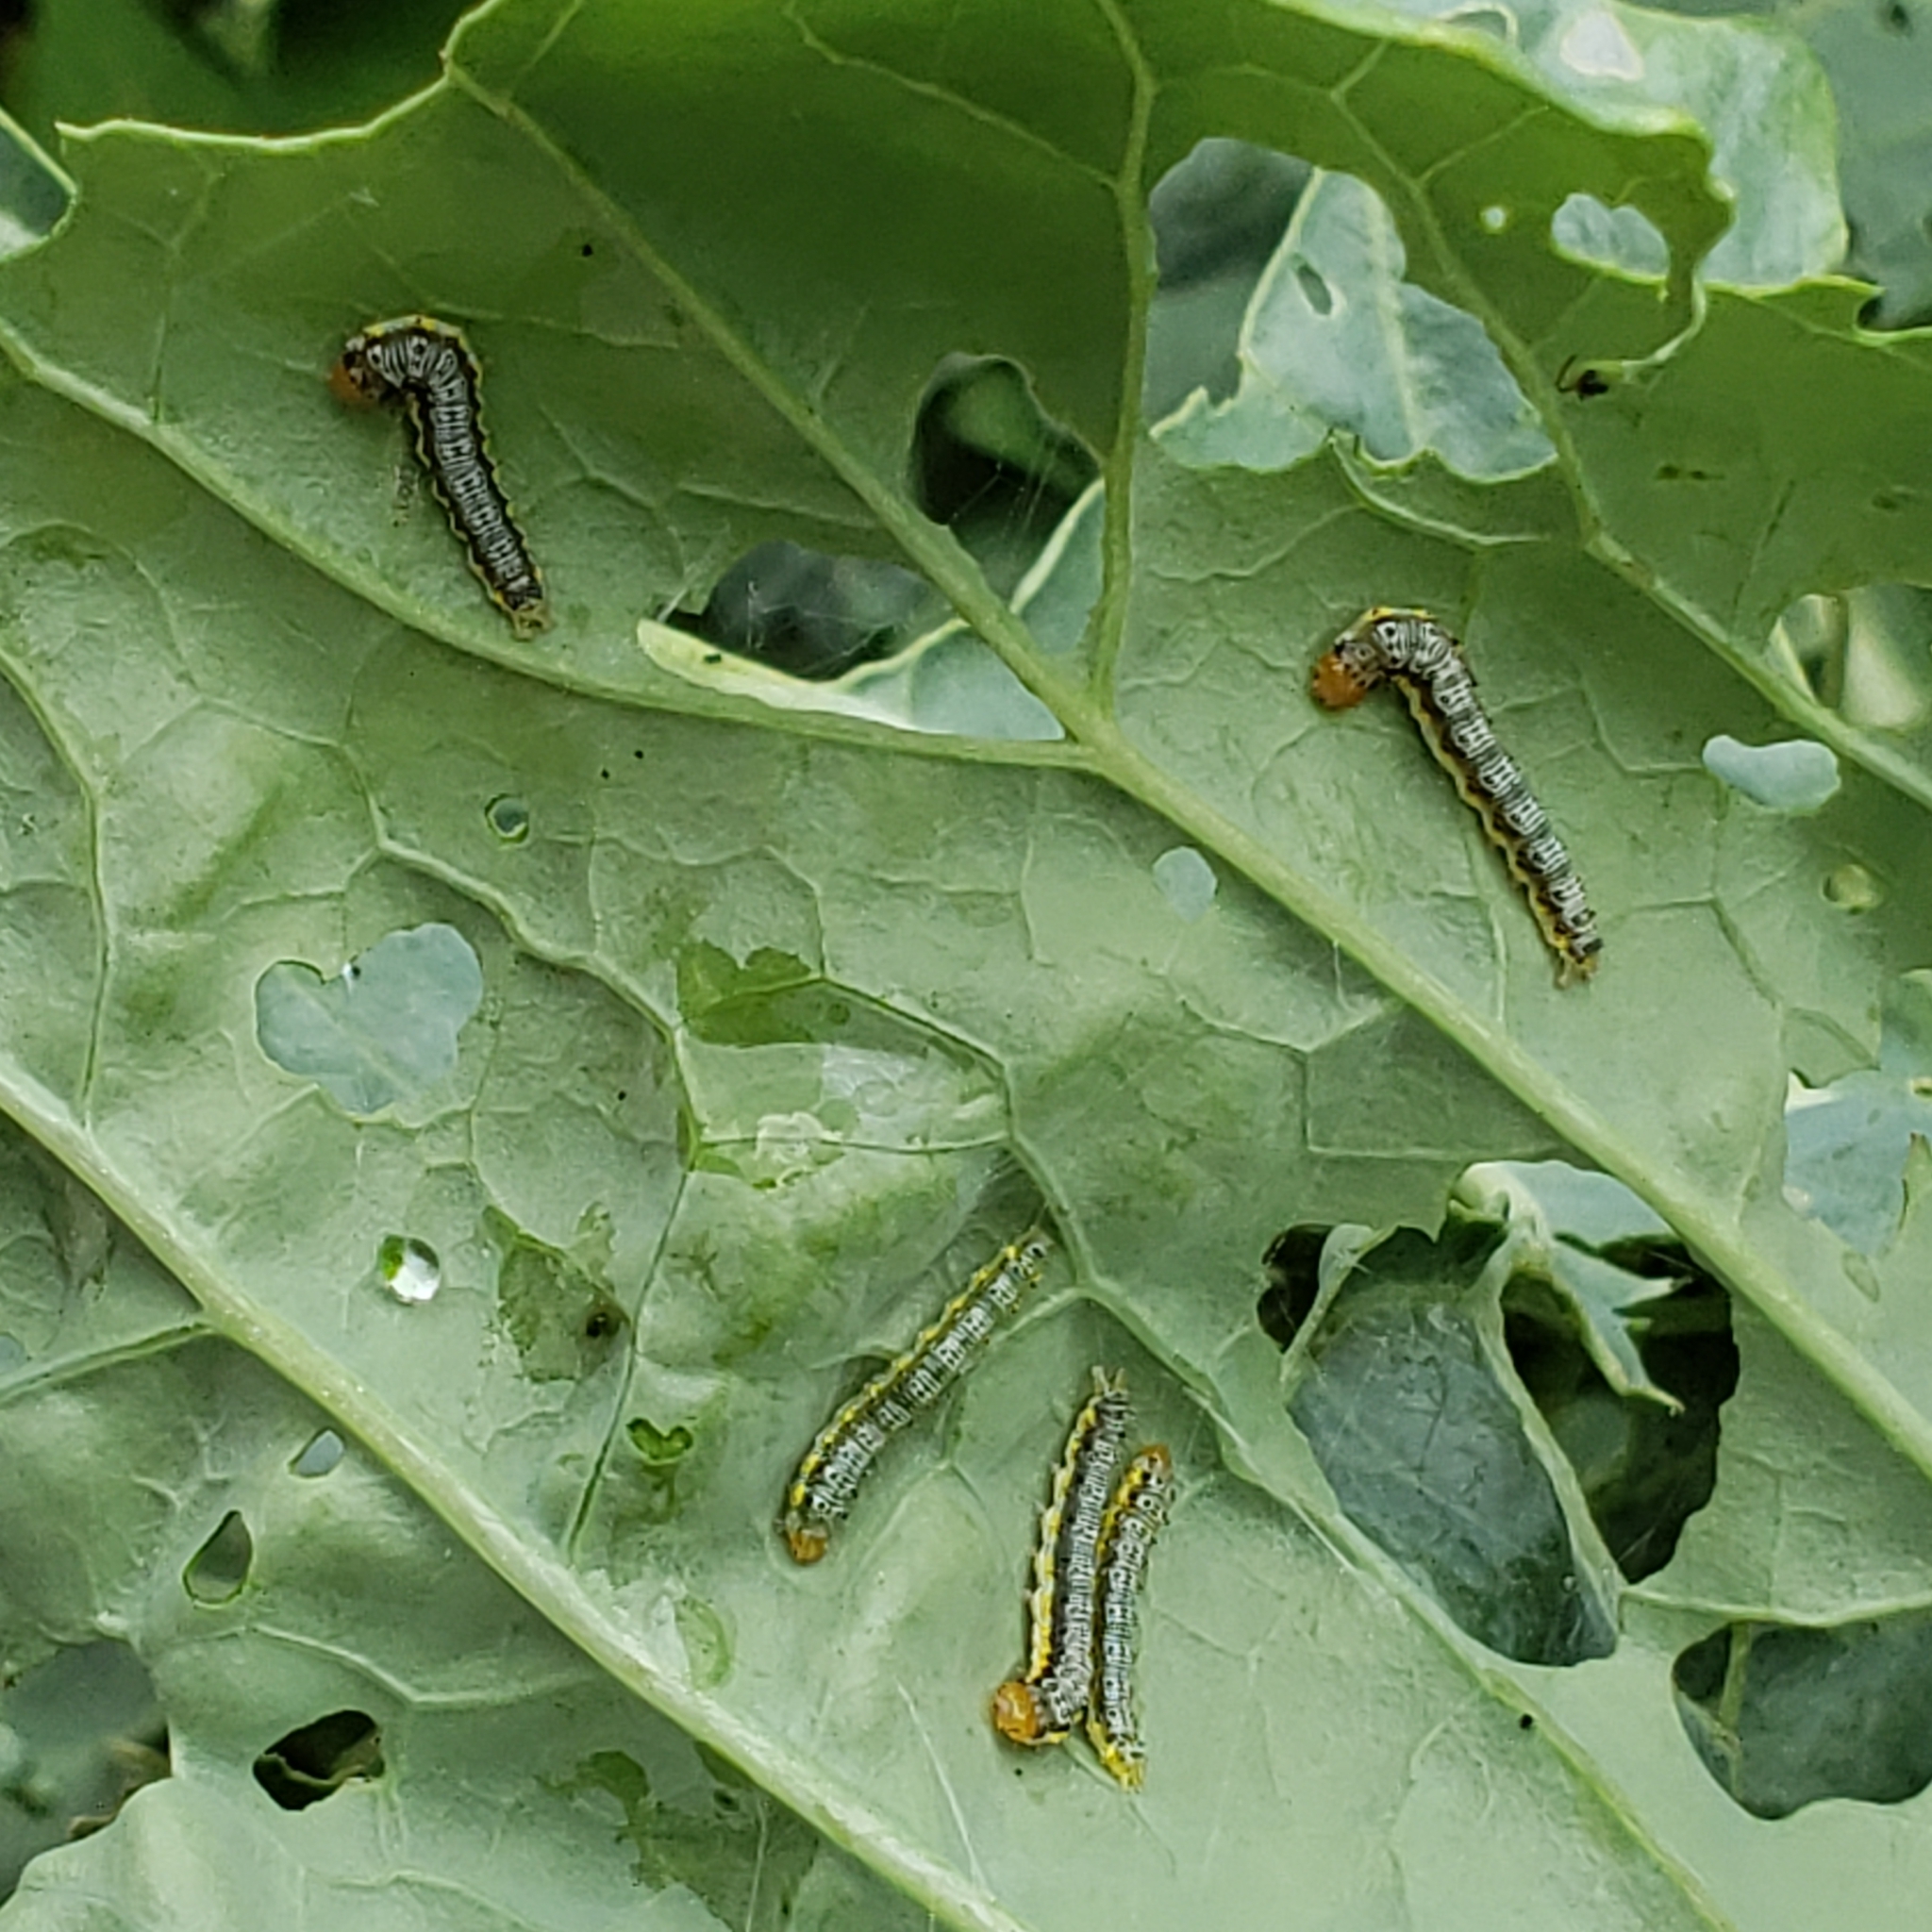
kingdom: Animalia
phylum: Arthropoda
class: Insecta
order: Lepidoptera
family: Pieridae
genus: Pieris
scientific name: Pieris rapae
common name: Small white
